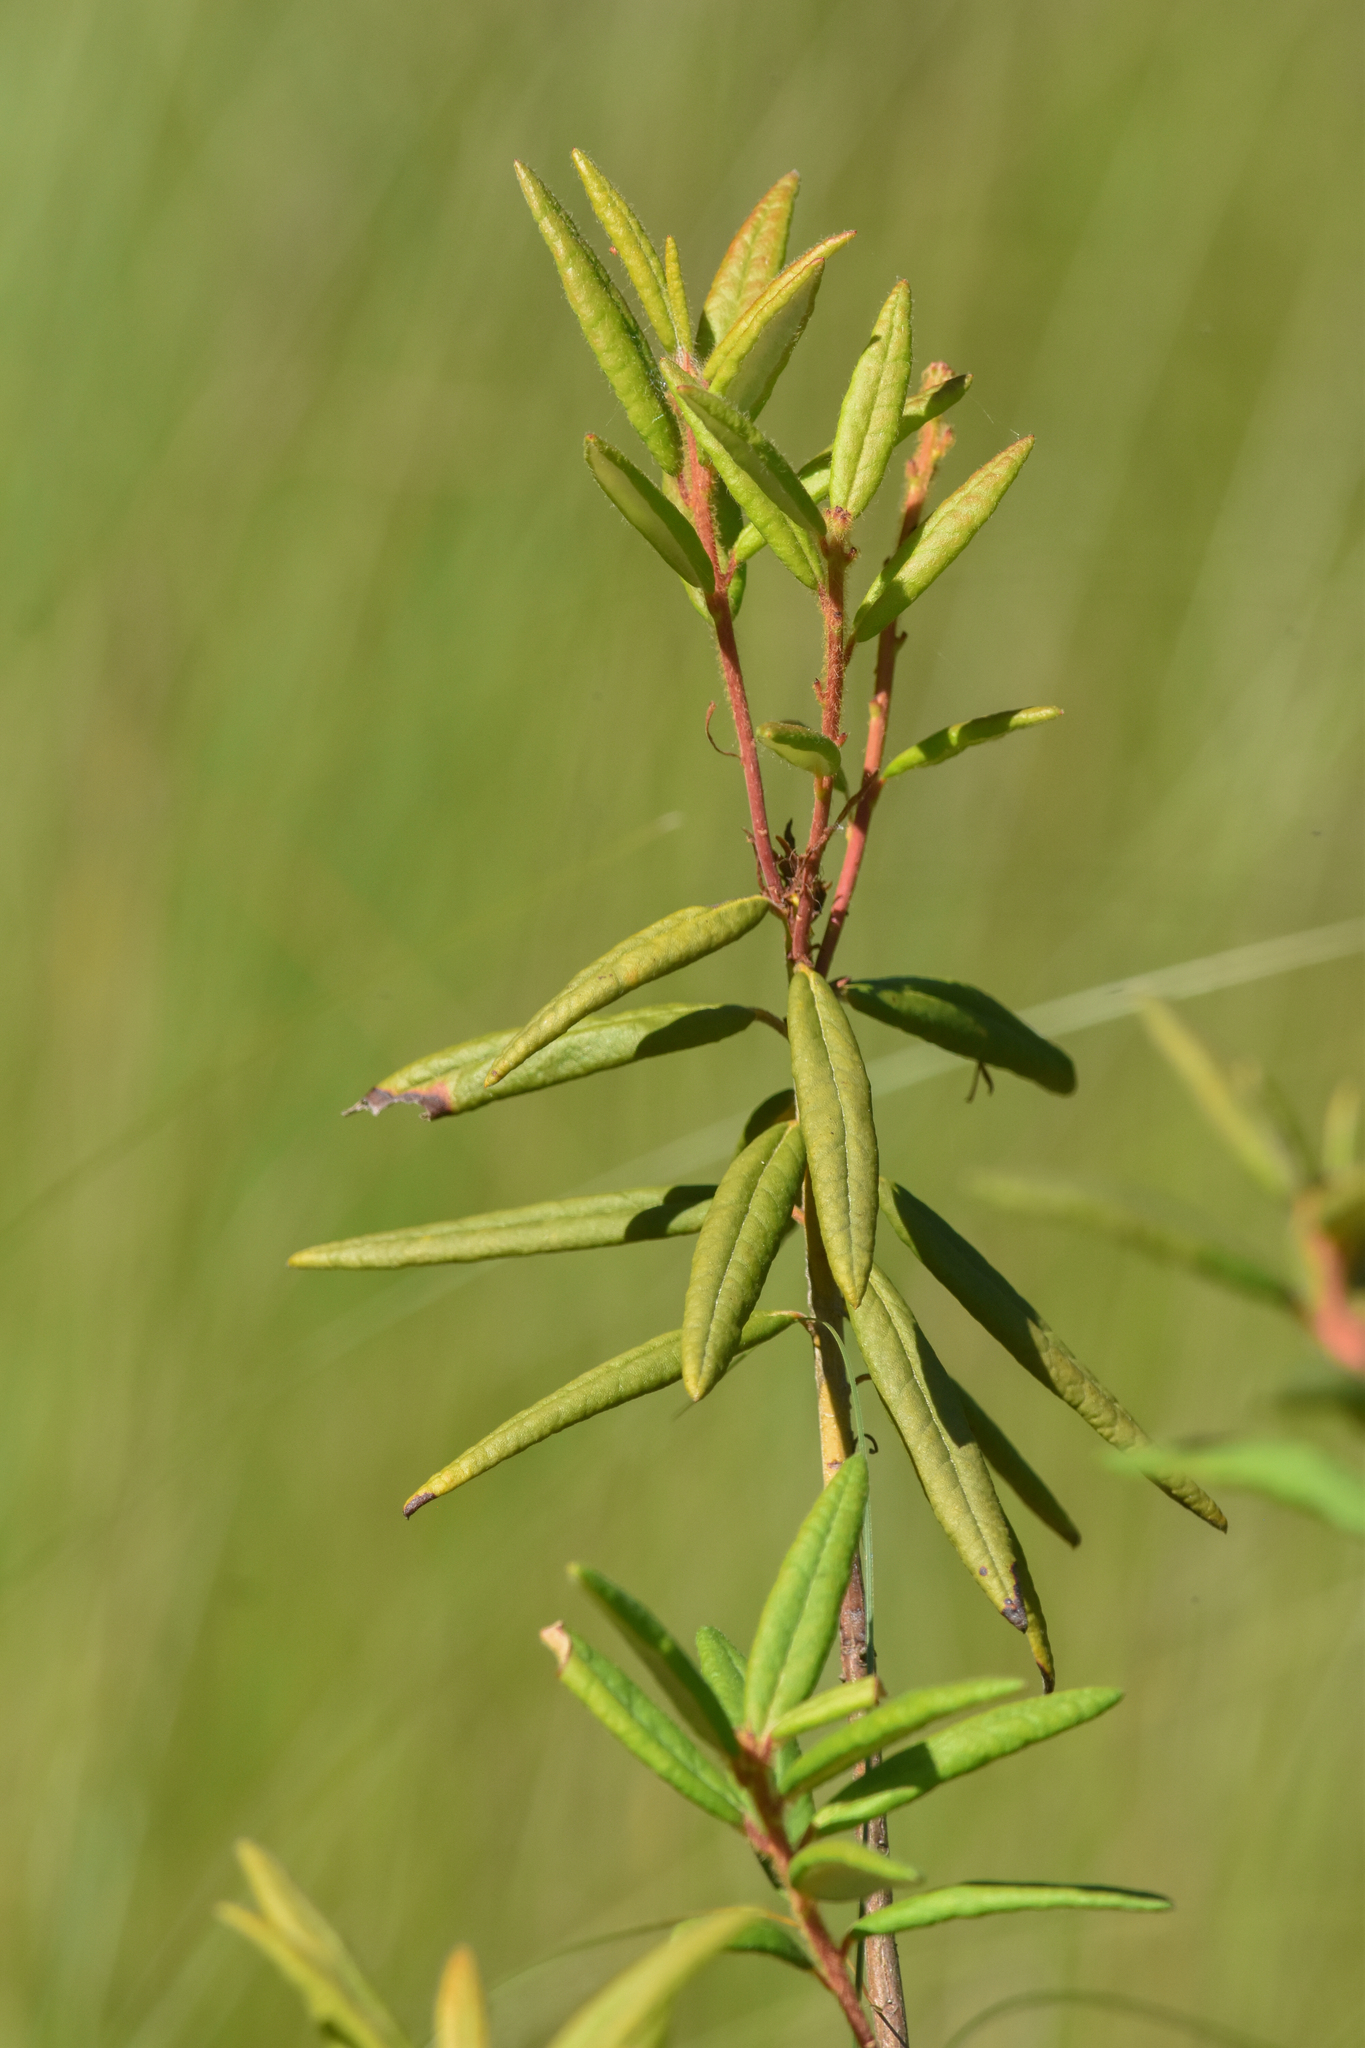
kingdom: Plantae
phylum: Tracheophyta
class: Magnoliopsida
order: Ericales
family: Ericaceae
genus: Rhododendron
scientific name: Rhododendron groenlandicum
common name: Bog labrador tea
